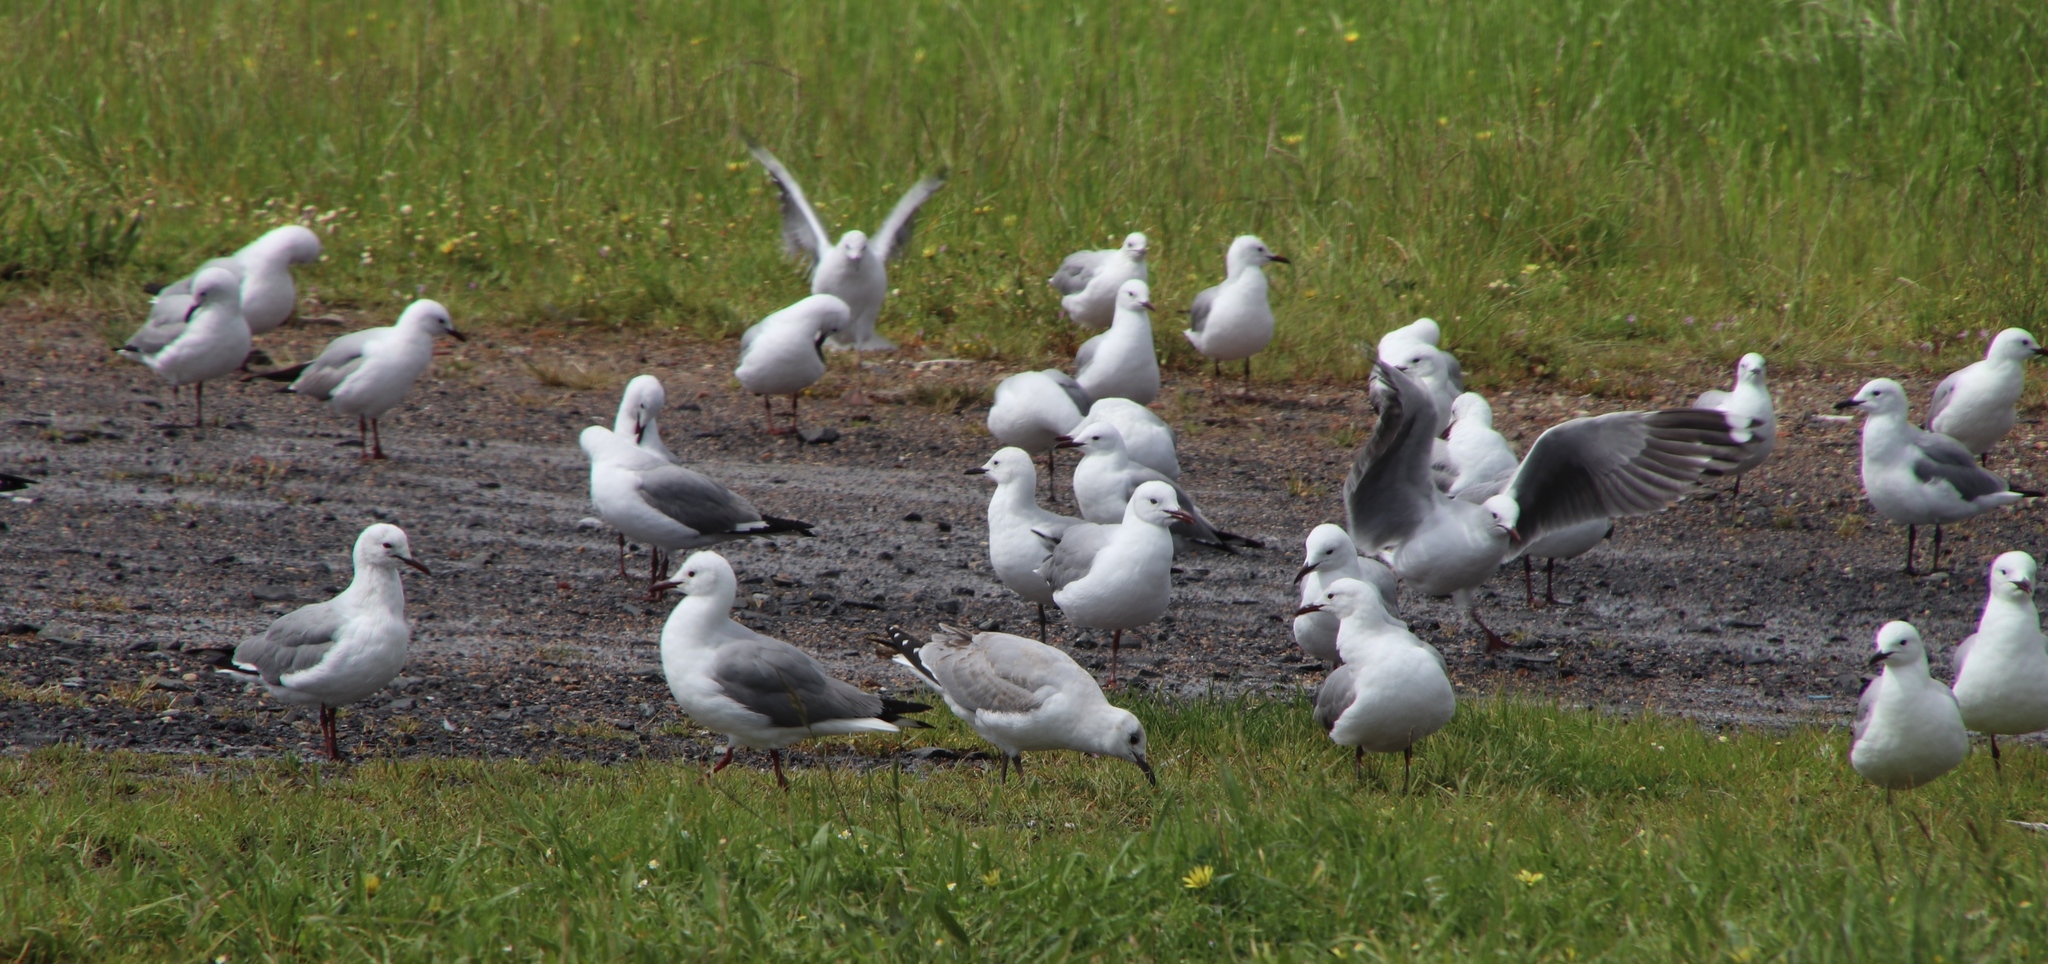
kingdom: Animalia
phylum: Chordata
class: Aves
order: Charadriiformes
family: Laridae
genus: Chroicocephalus
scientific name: Chroicocephalus hartlaubii
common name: Hartlaub's gull
